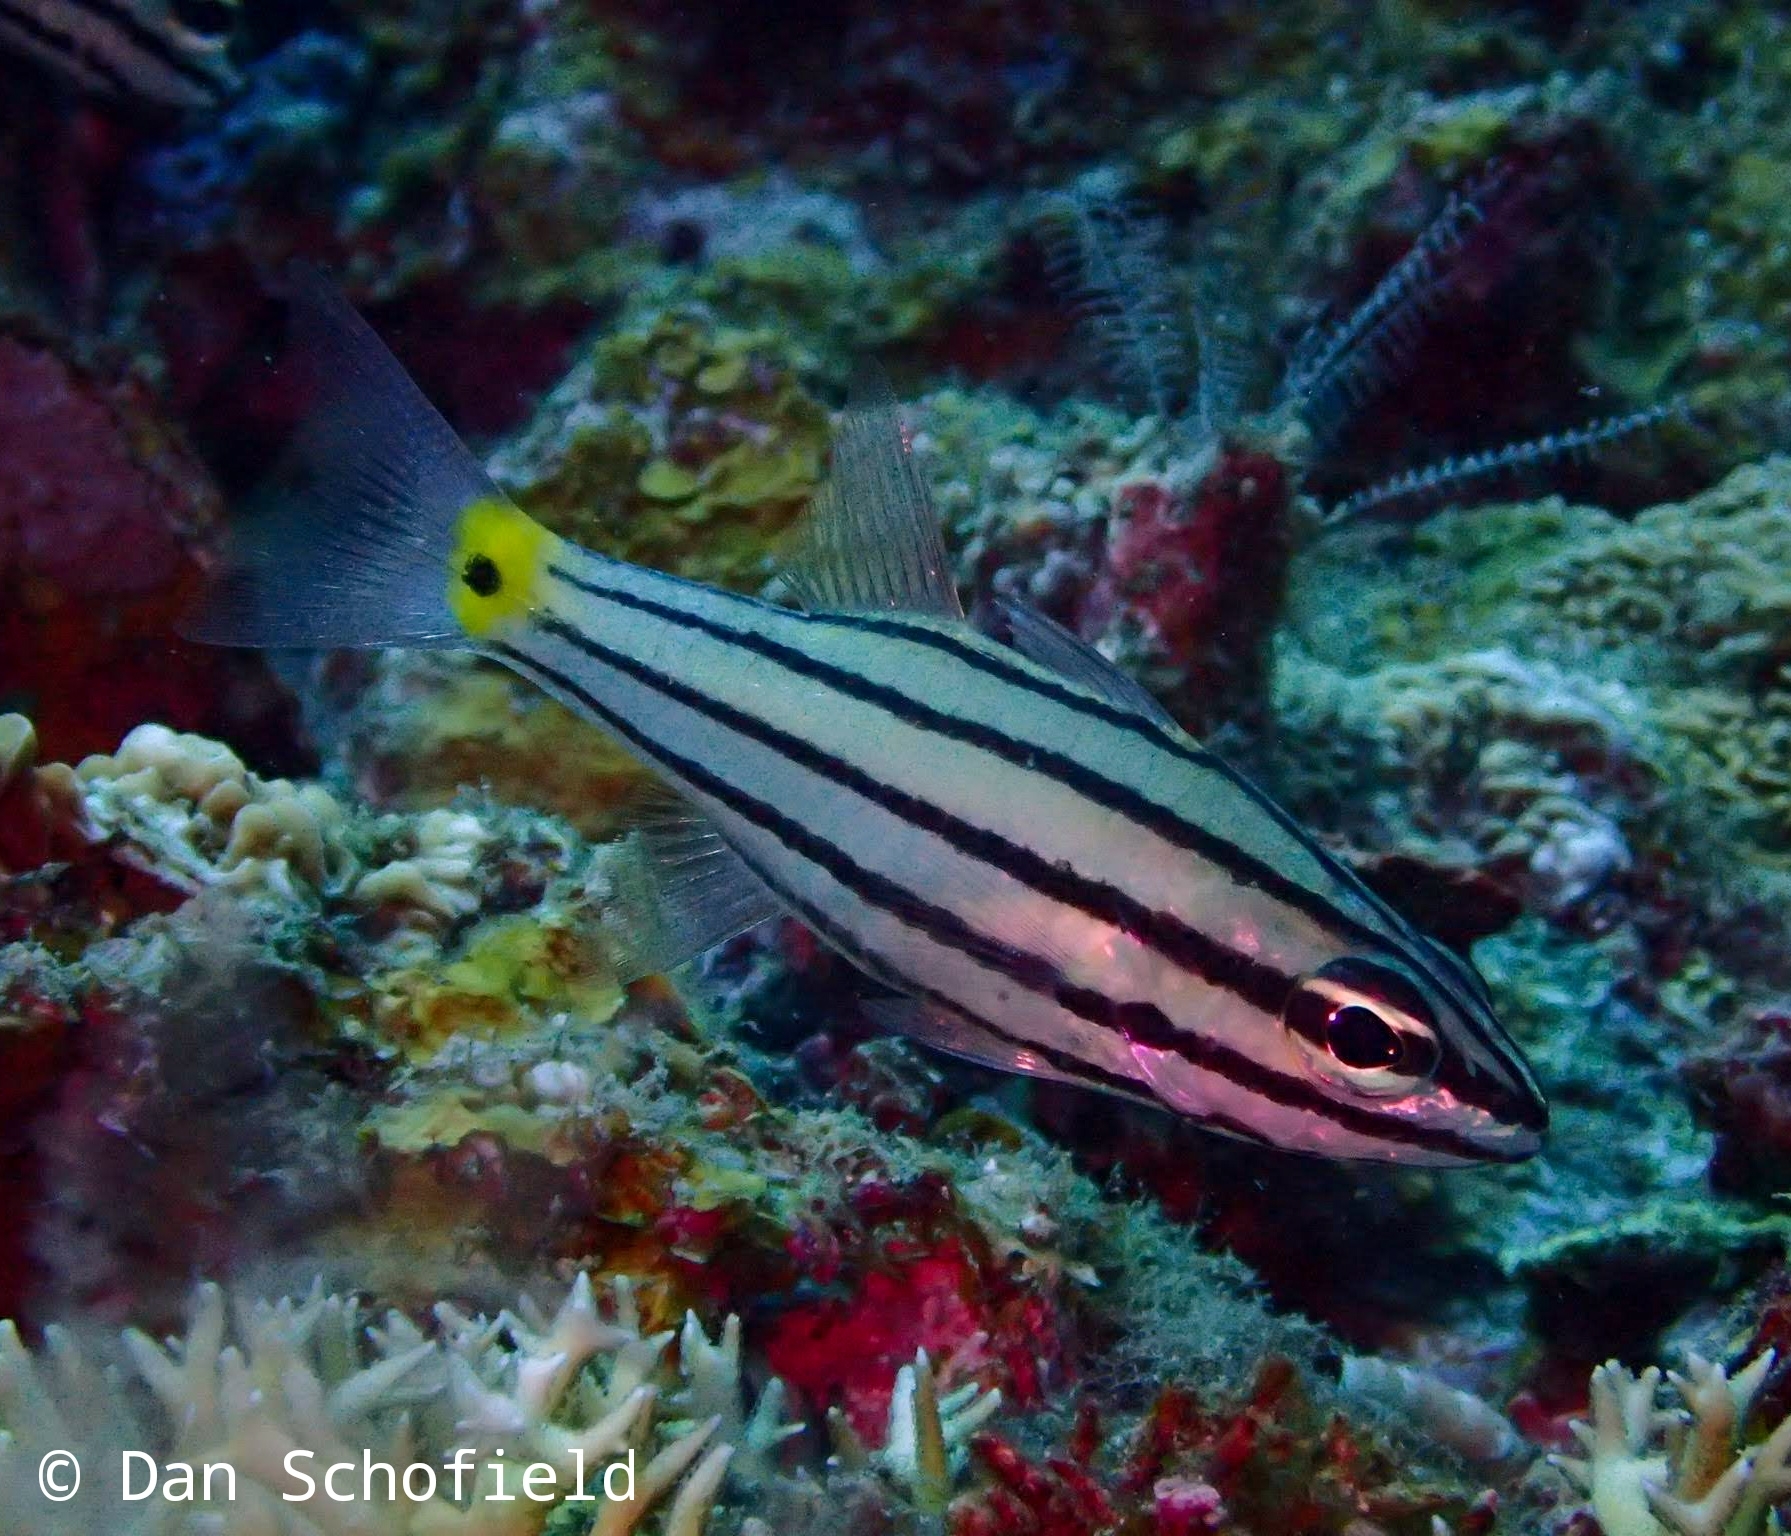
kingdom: Animalia
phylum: Chordata
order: Perciformes
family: Apogonidae
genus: Cheilodipterus
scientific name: Cheilodipterus quinquelineatus
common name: Five-lined cardinalfish
